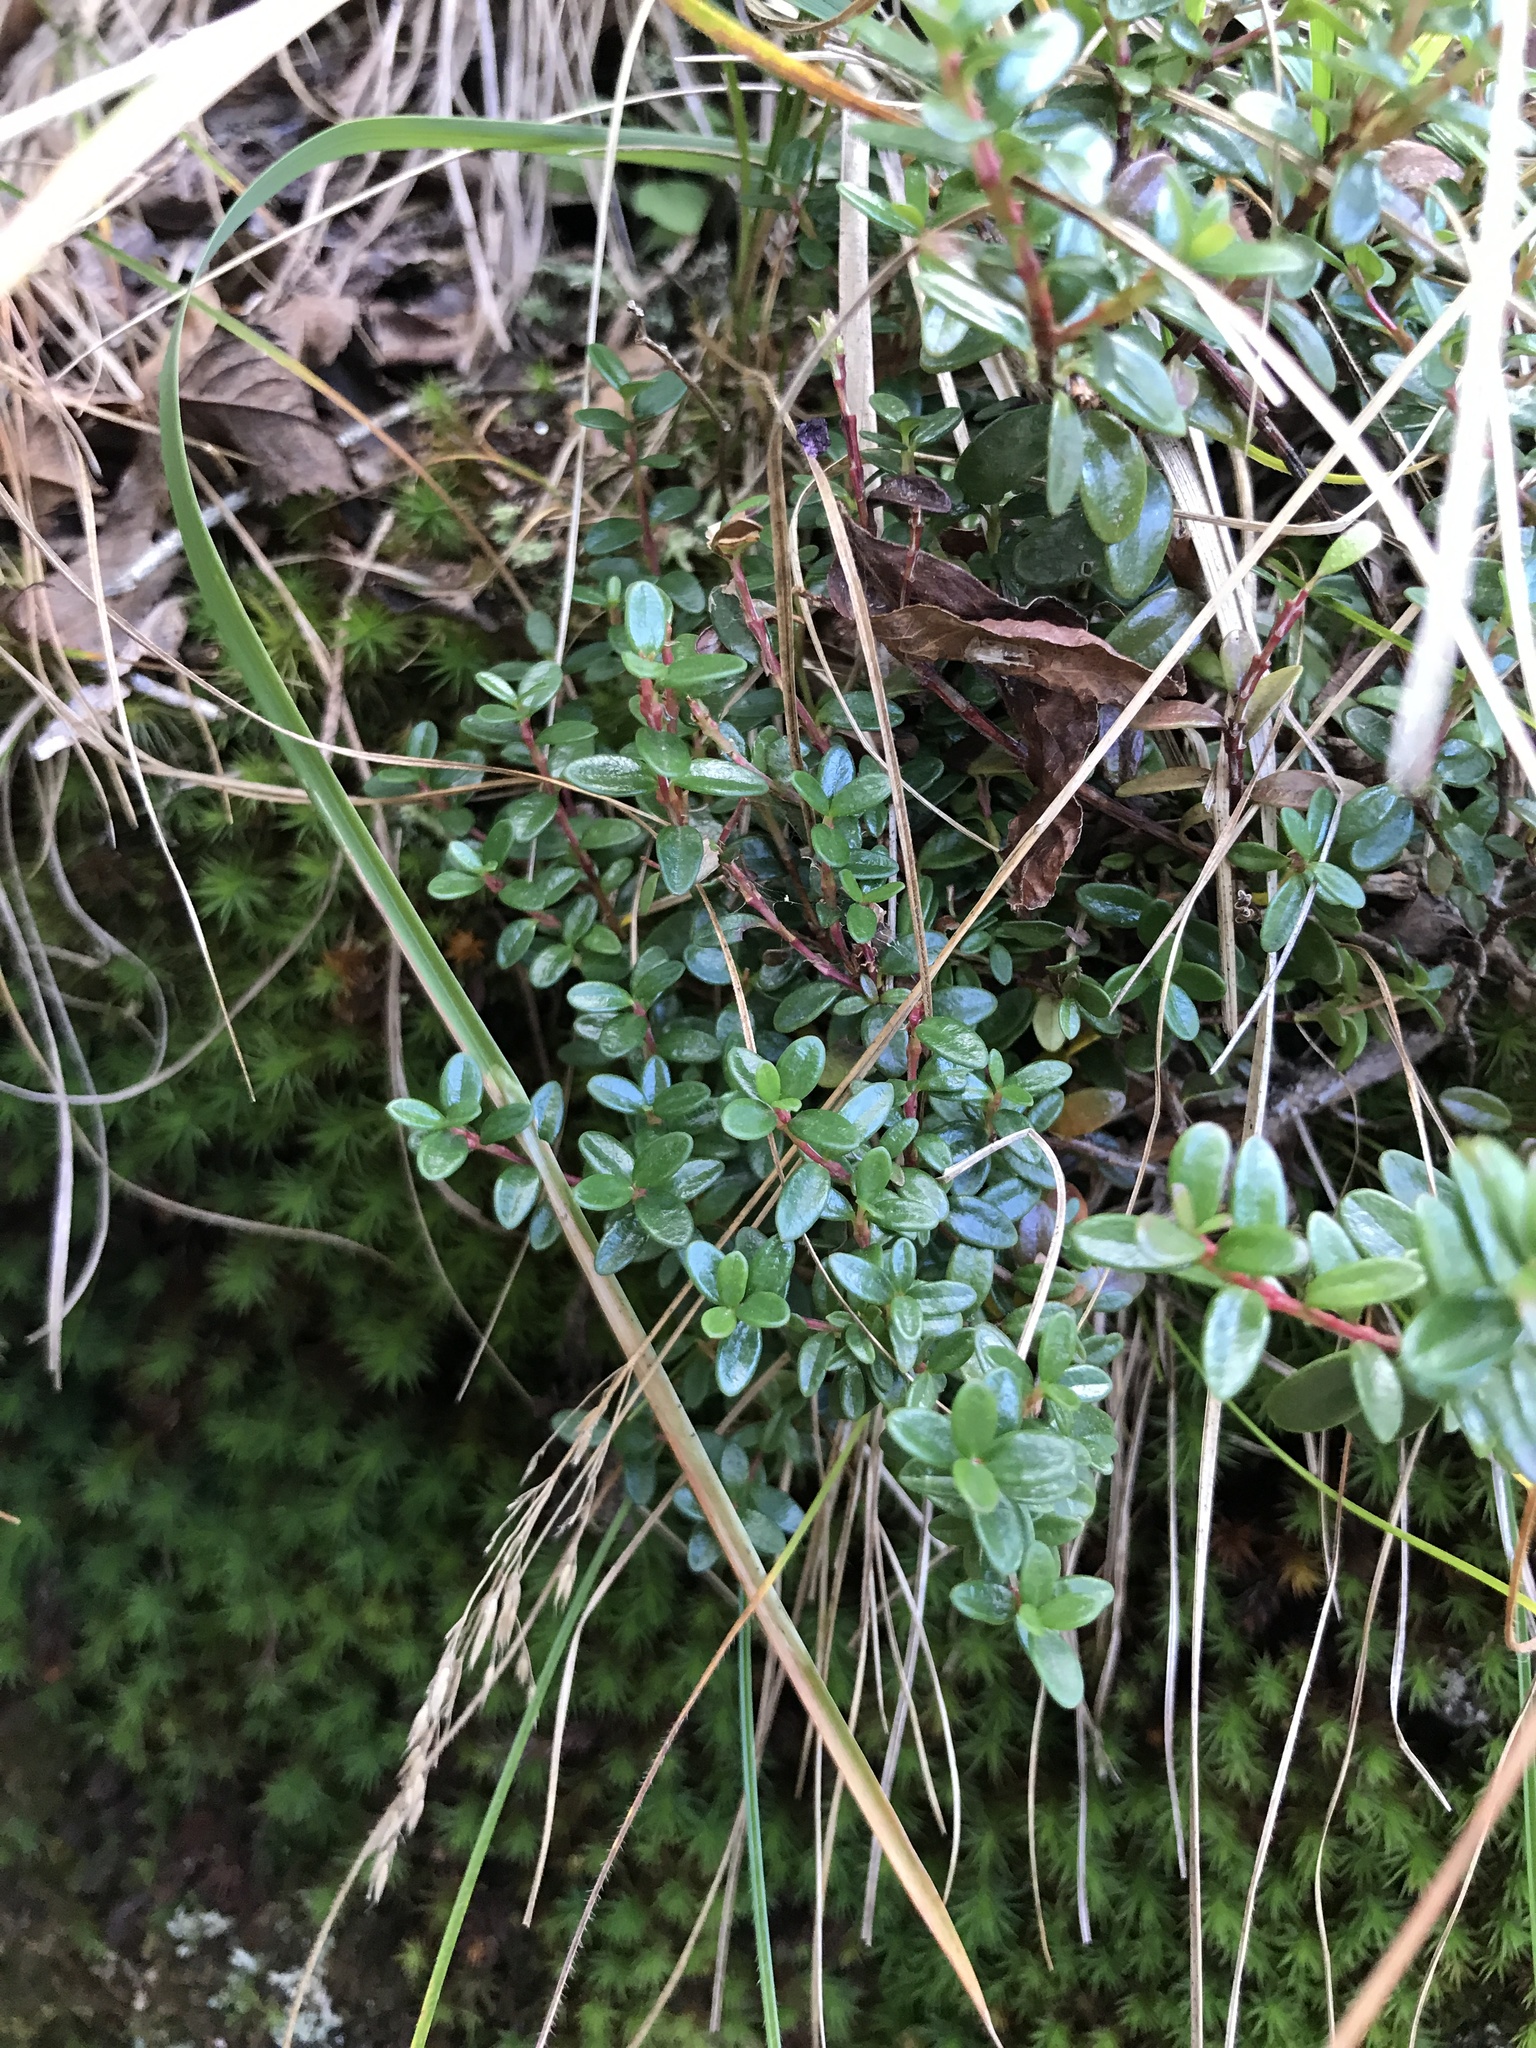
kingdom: Plantae
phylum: Tracheophyta
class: Magnoliopsida
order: Ericales
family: Ericaceae
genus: Kalmia
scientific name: Kalmia buxifolia
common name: Sandmyrtle
